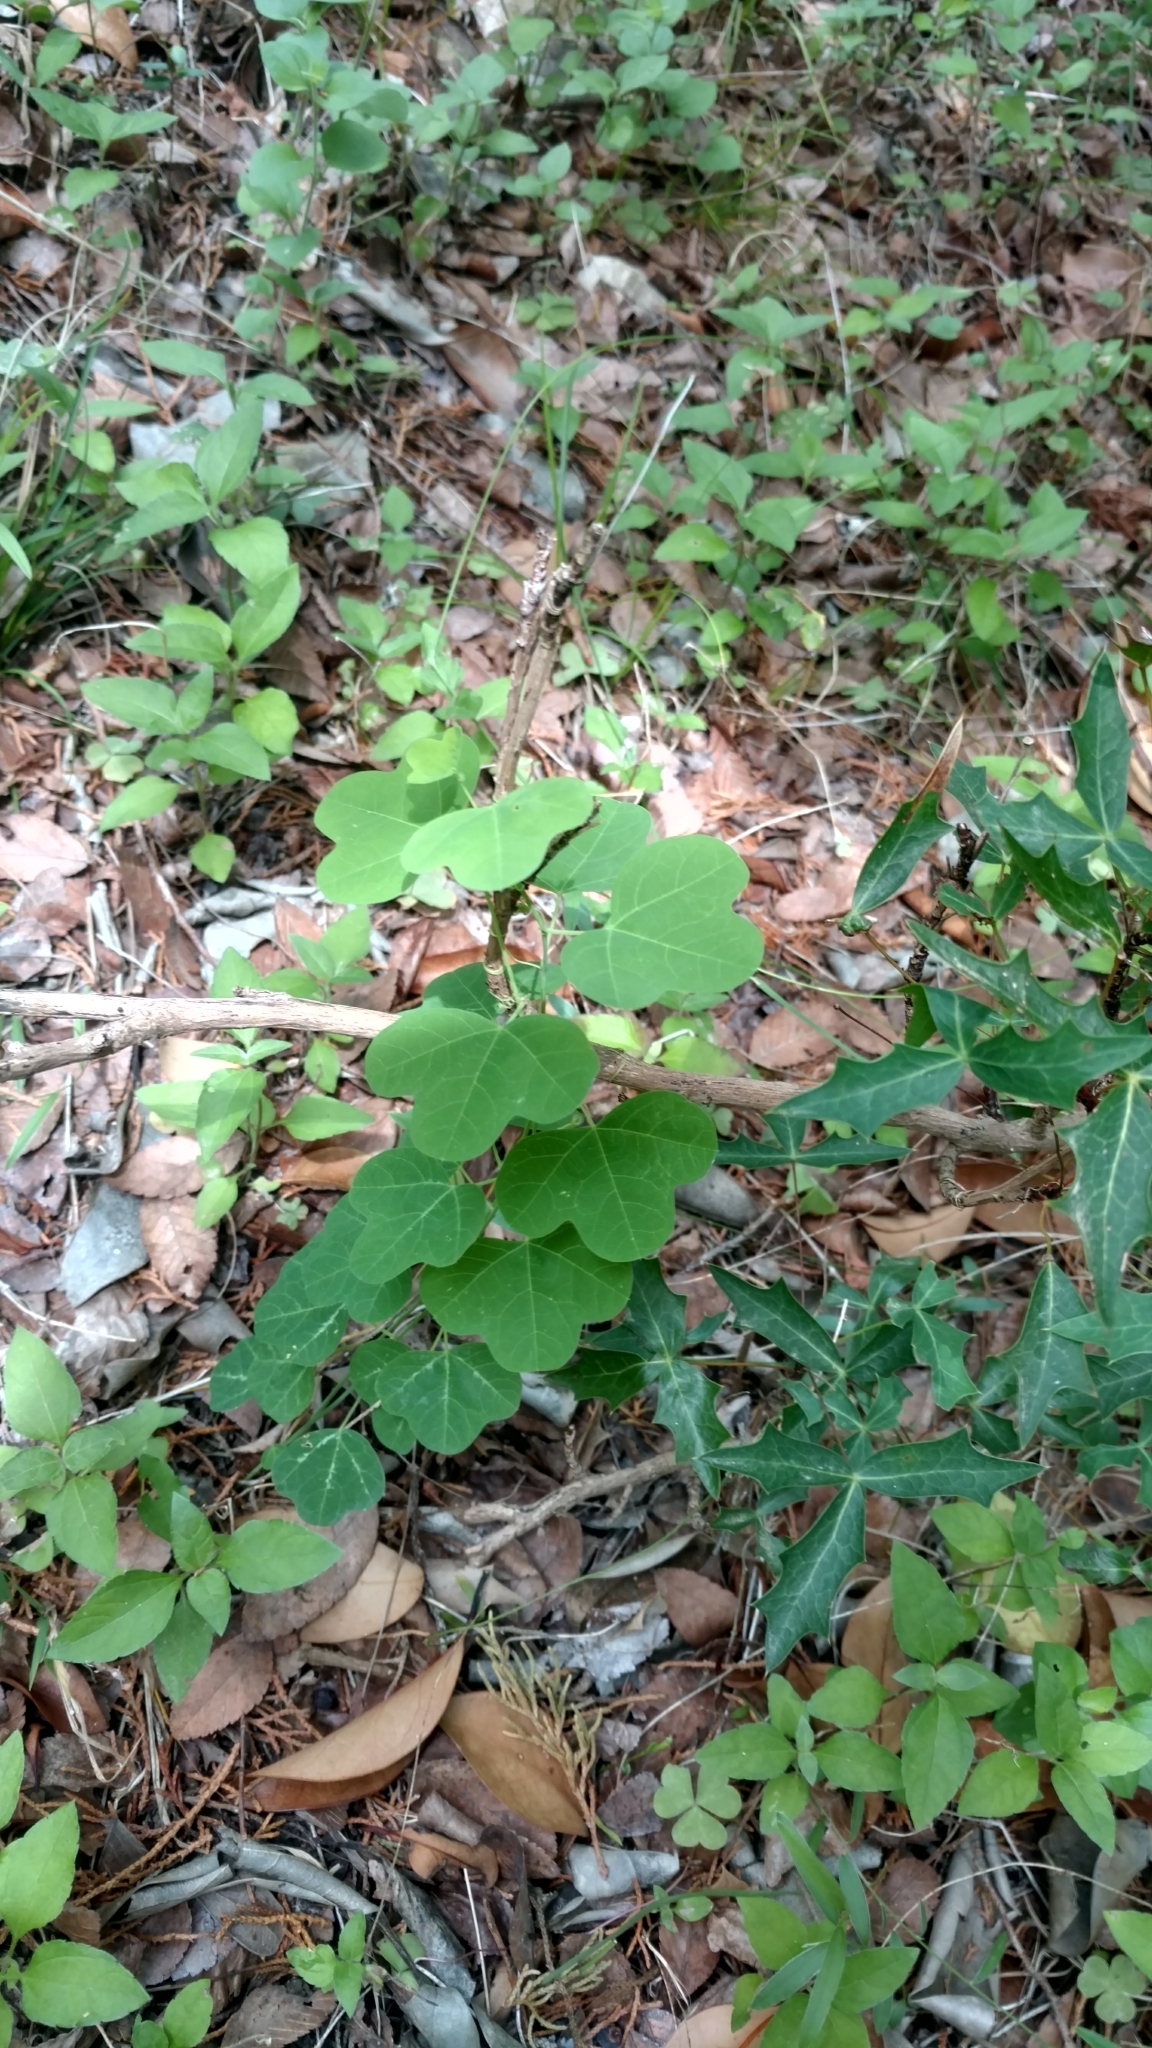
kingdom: Plantae
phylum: Tracheophyta
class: Magnoliopsida
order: Malpighiales
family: Passifloraceae
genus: Passiflora
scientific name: Passiflora lutea
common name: Yellow passionflower
